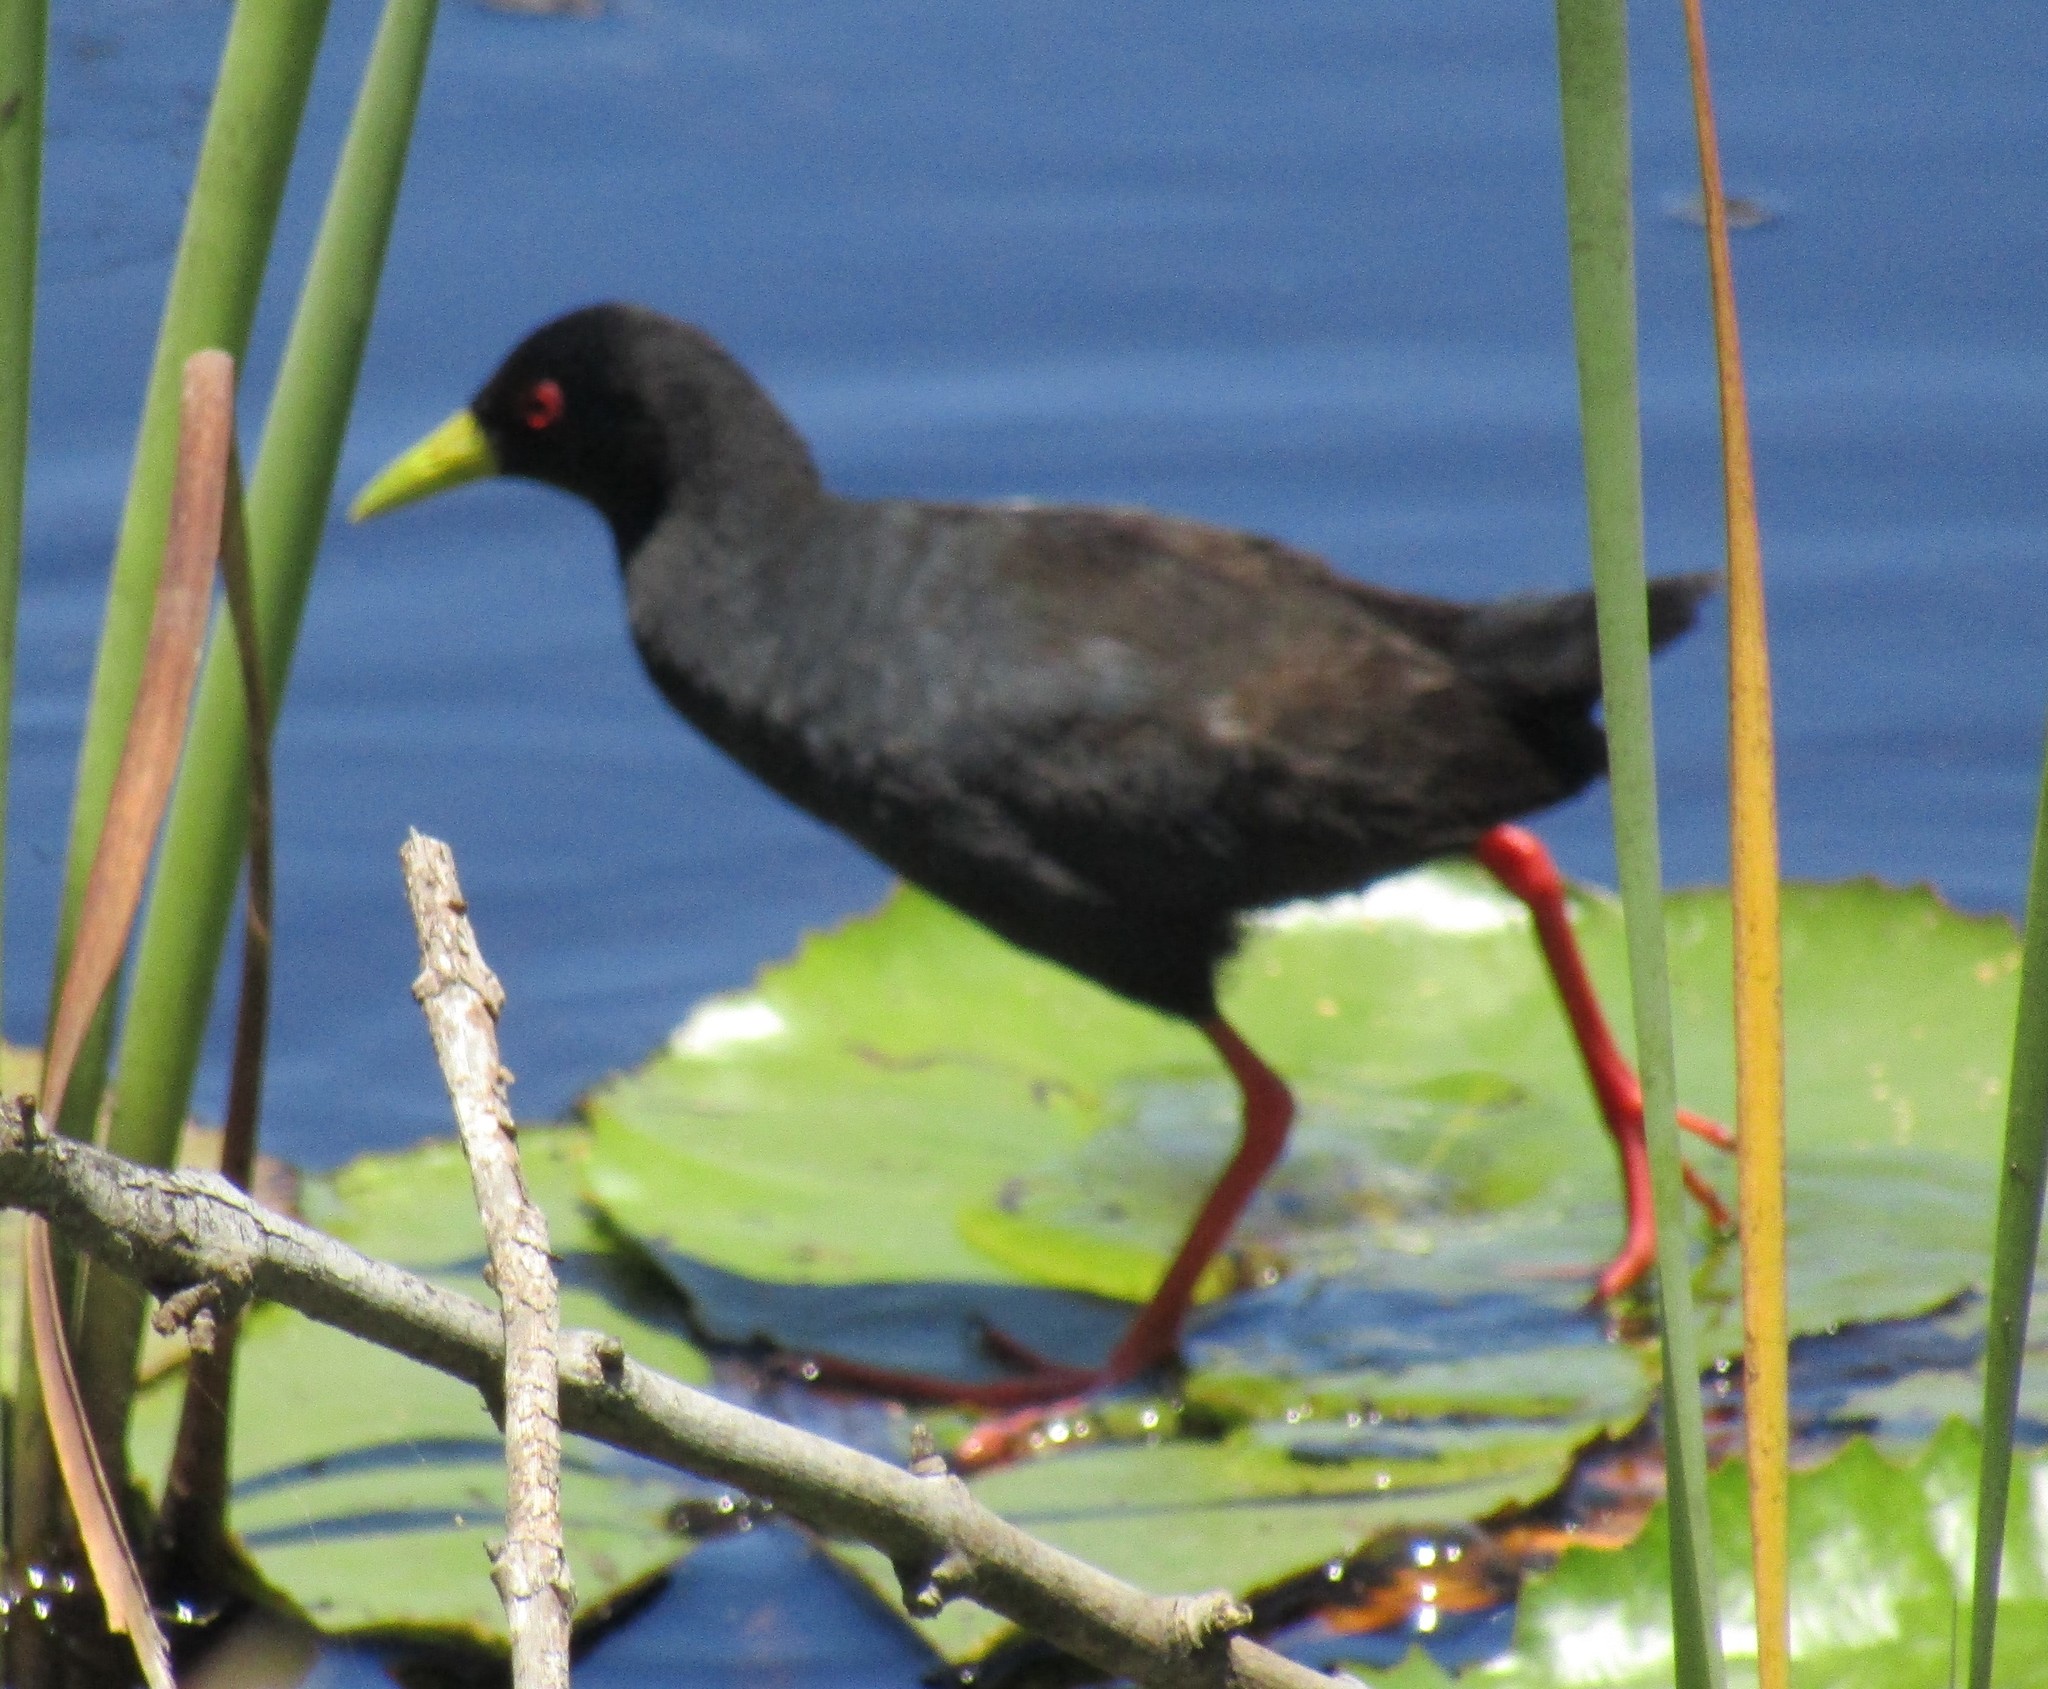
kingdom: Animalia
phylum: Chordata
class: Aves
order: Gruiformes
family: Rallidae
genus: Amaurornis
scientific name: Amaurornis flavirostra
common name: Black crake
